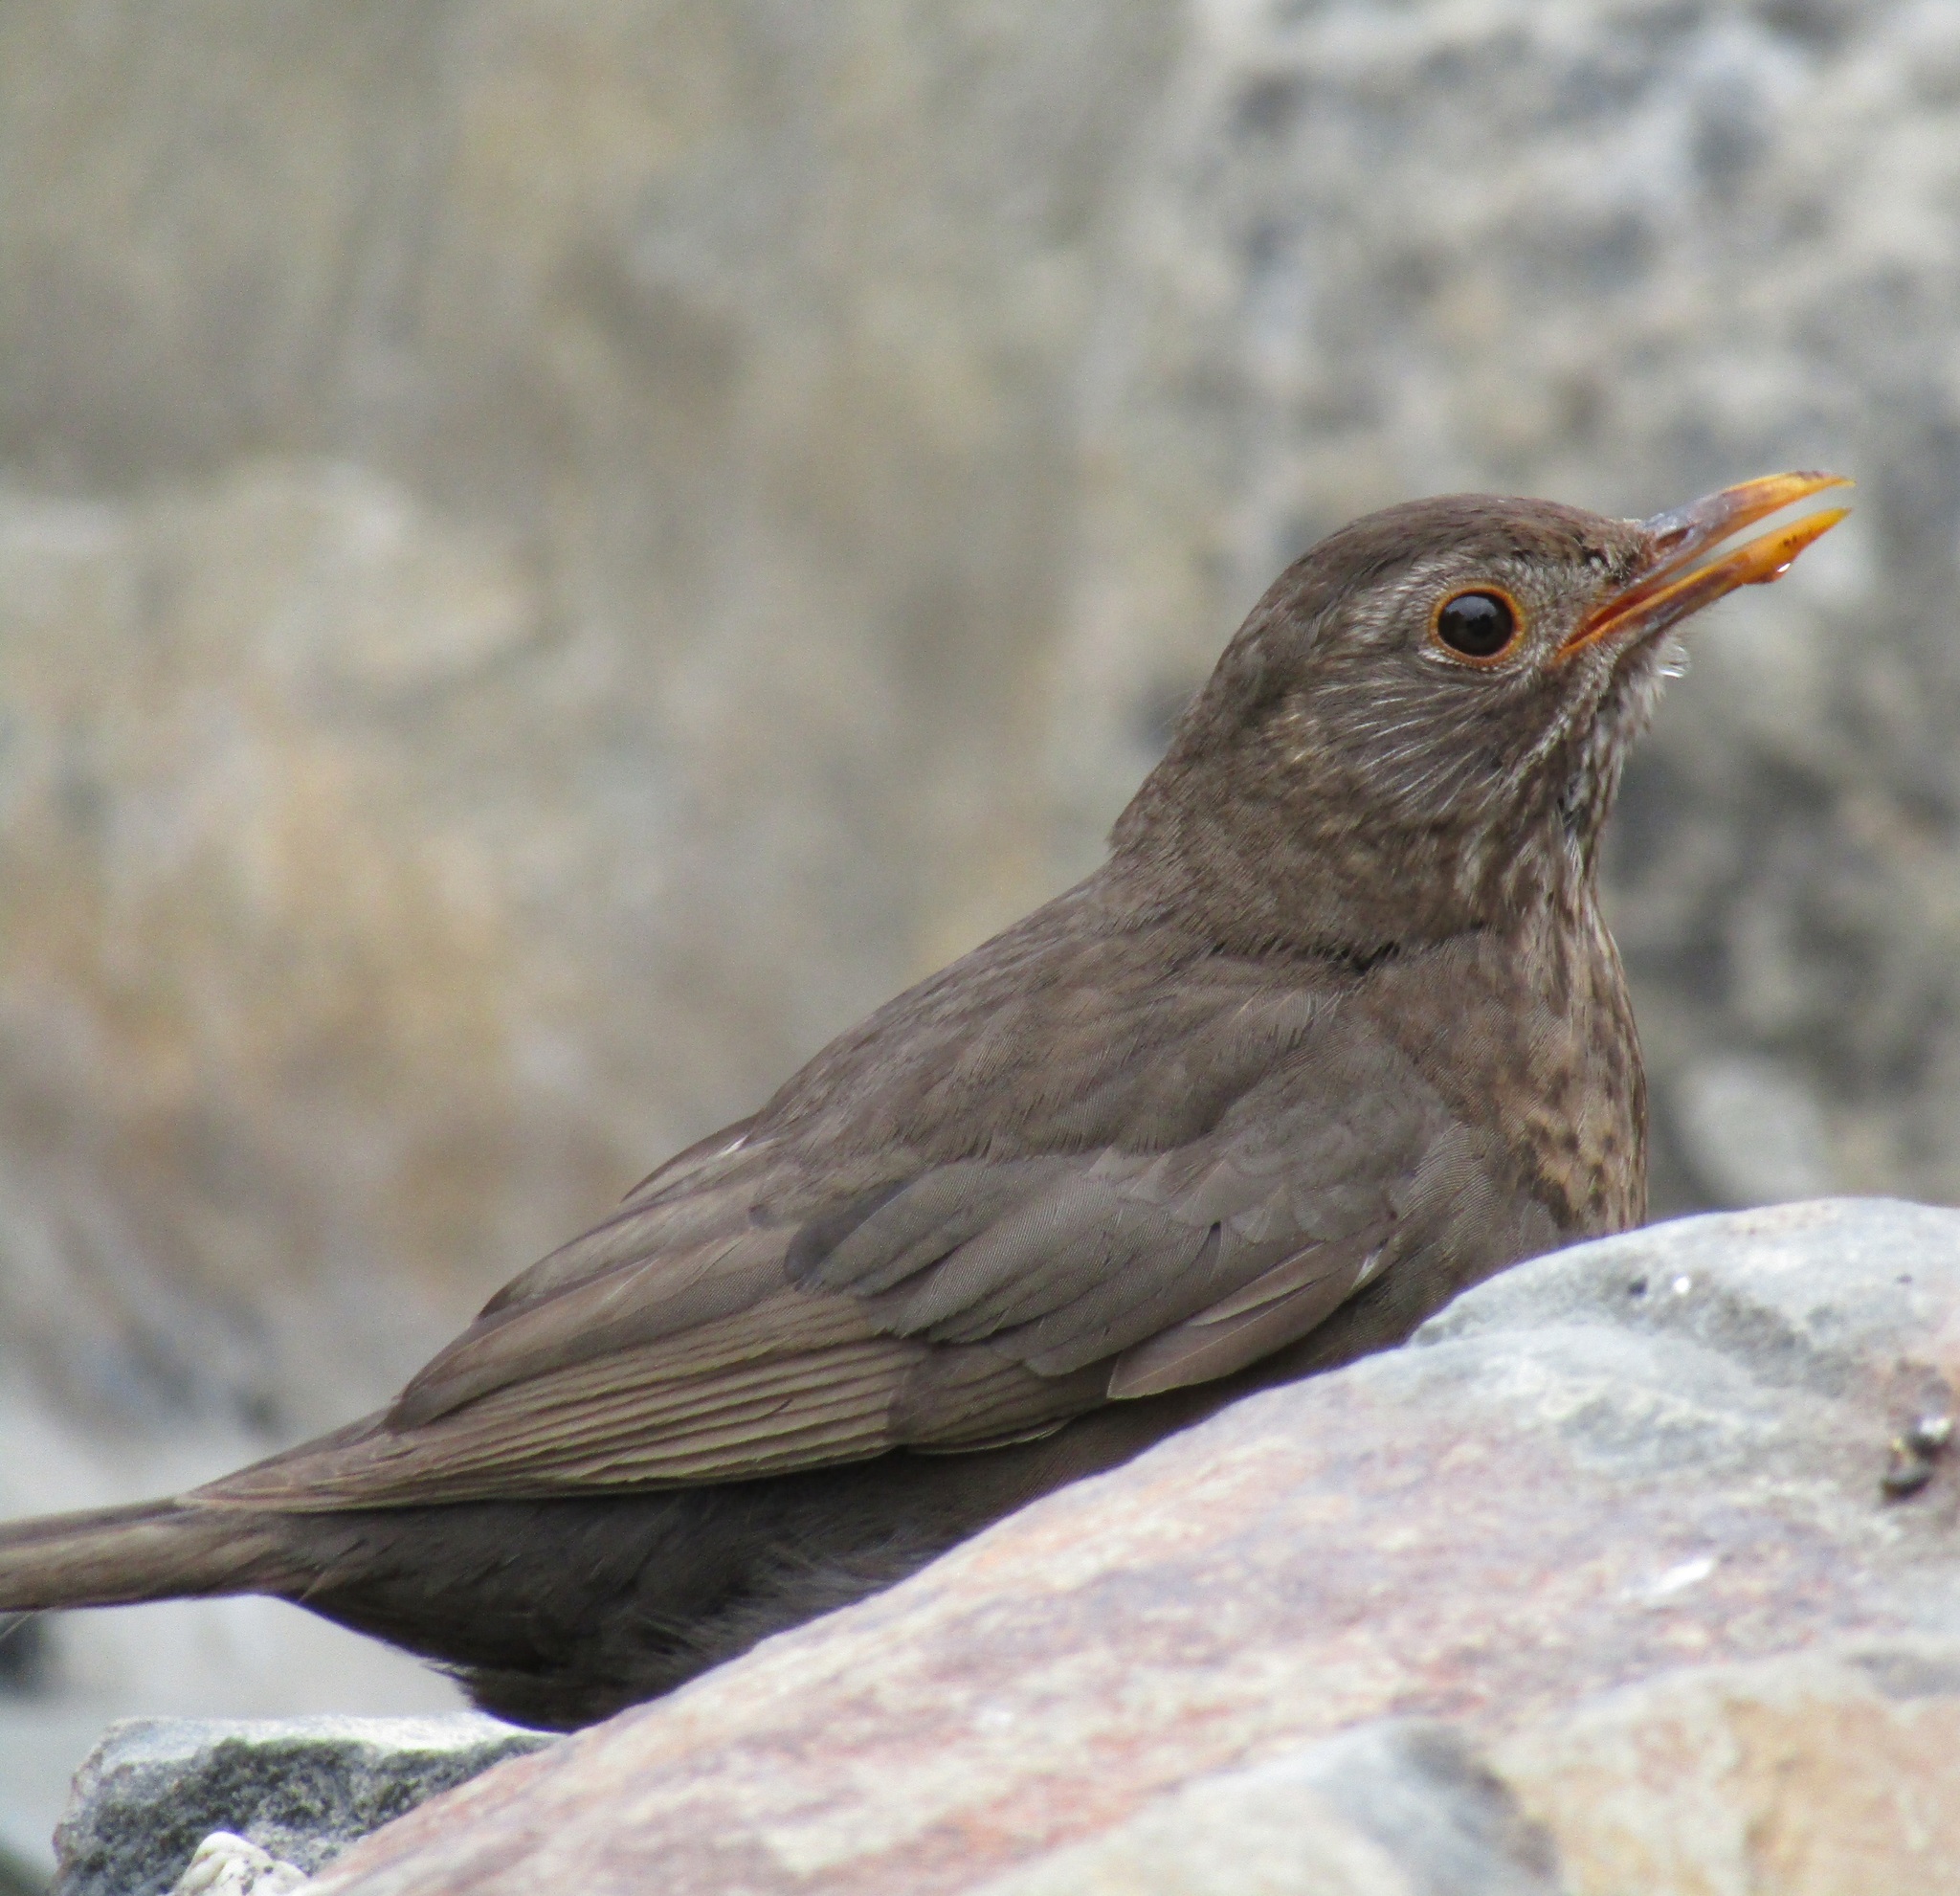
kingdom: Animalia
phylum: Chordata
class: Aves
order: Passeriformes
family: Turdidae
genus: Turdus
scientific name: Turdus merula
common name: Common blackbird
